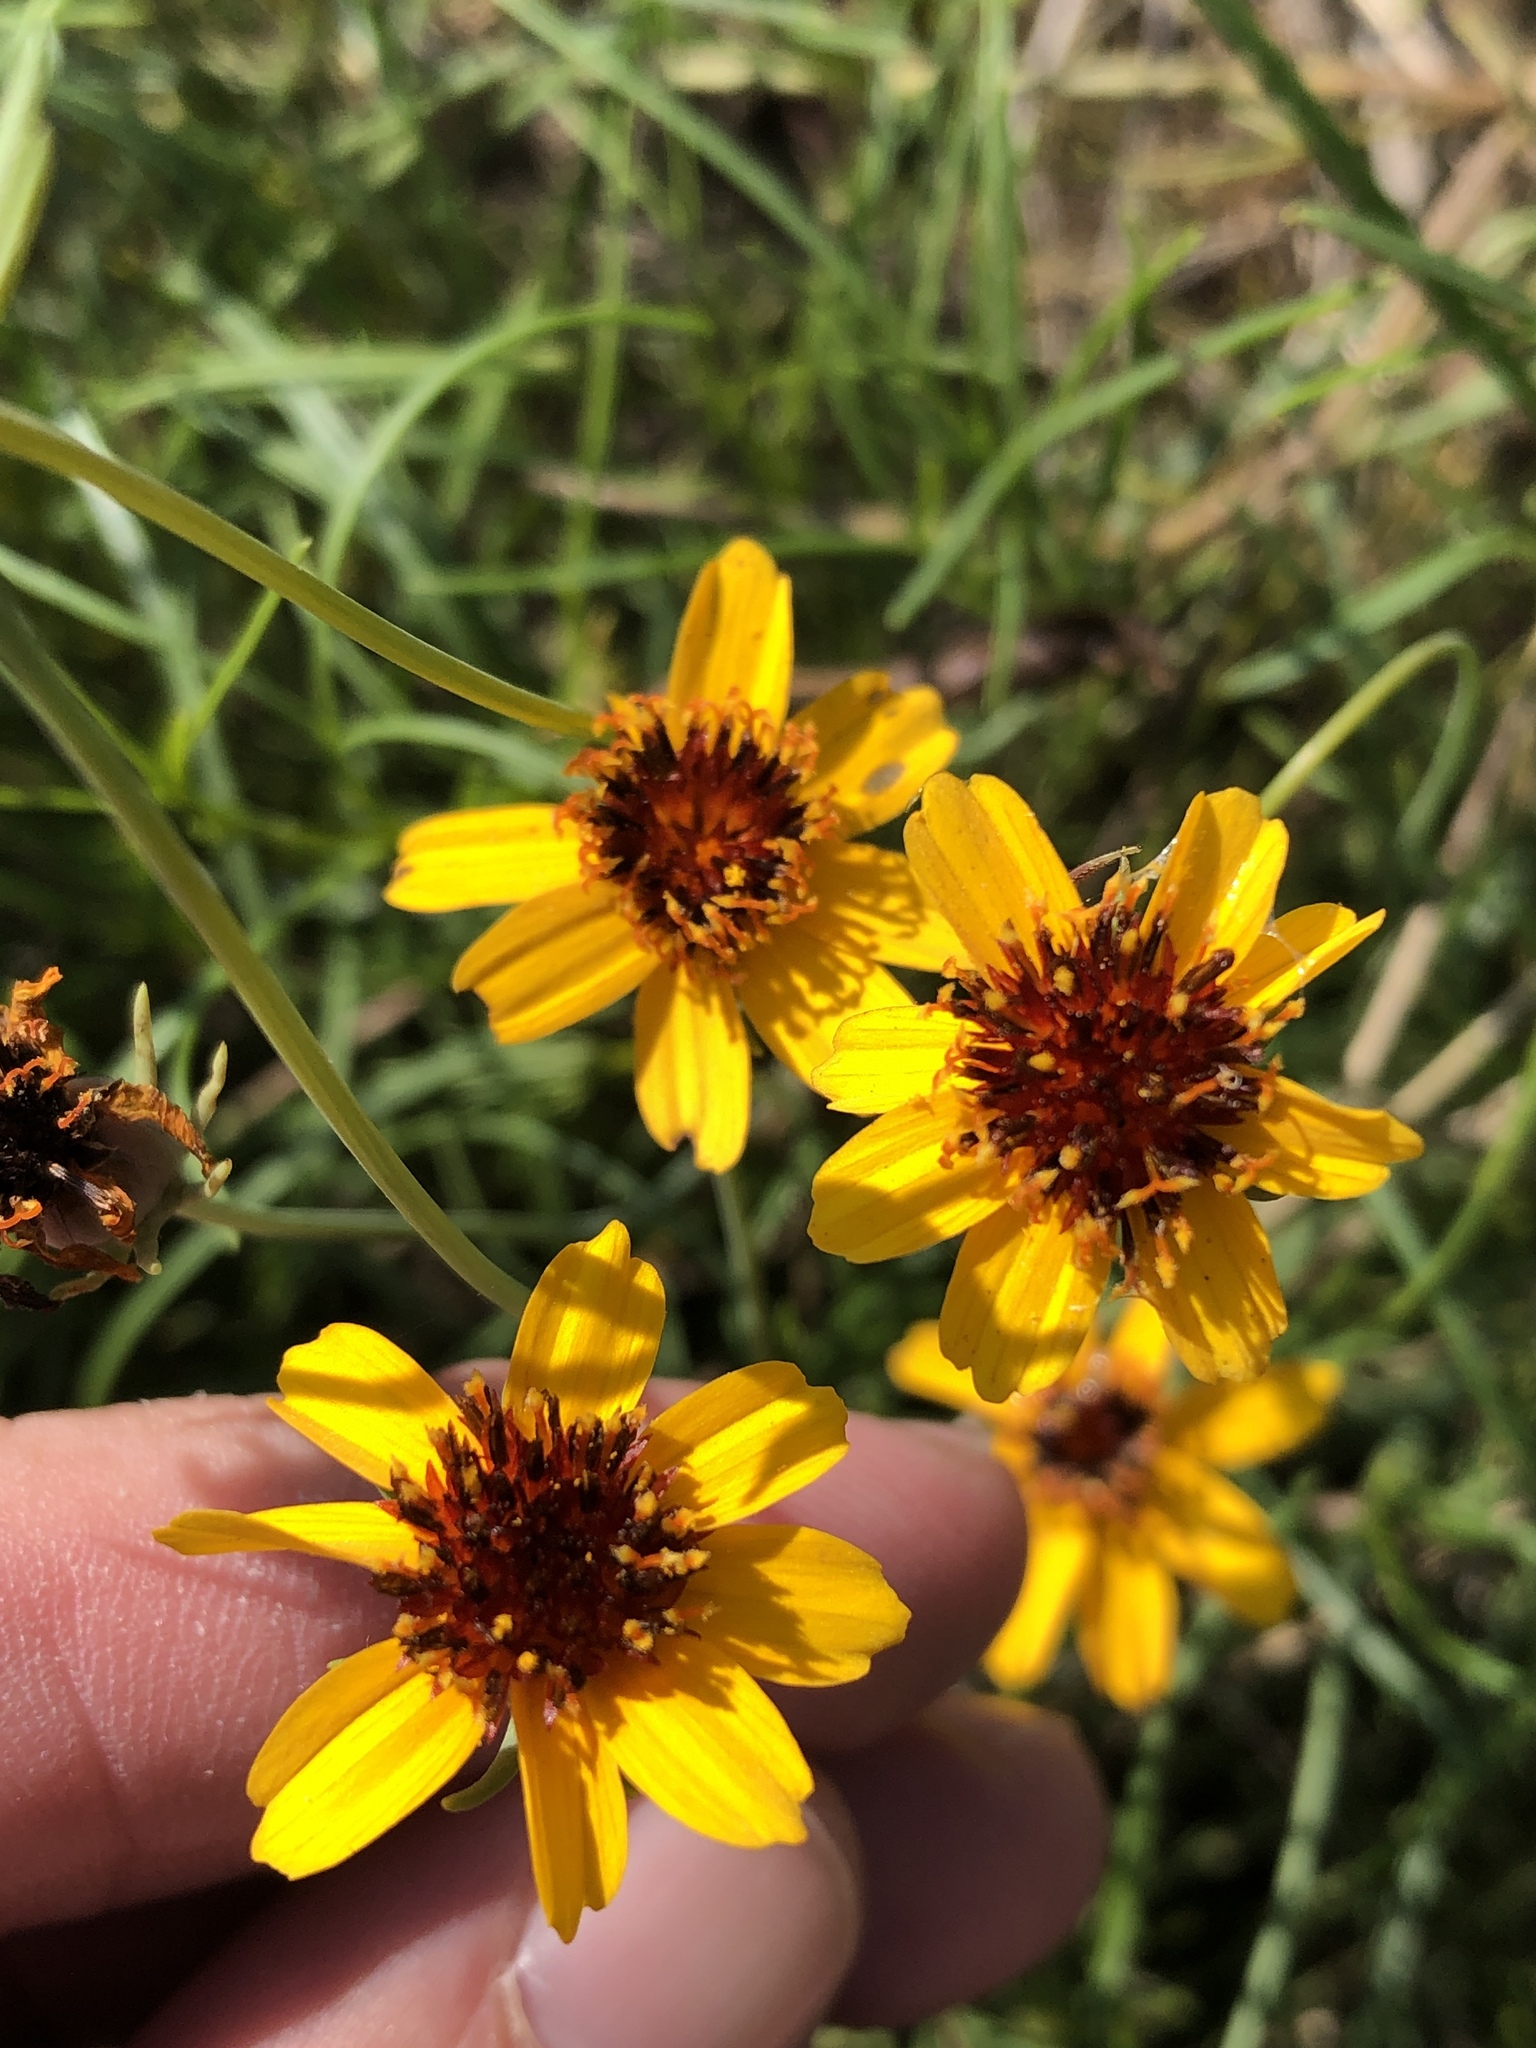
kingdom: Plantae
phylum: Tracheophyta
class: Magnoliopsida
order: Asterales
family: Asteraceae
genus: Thelesperma
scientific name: Thelesperma filifolium
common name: Stiff greenthread
